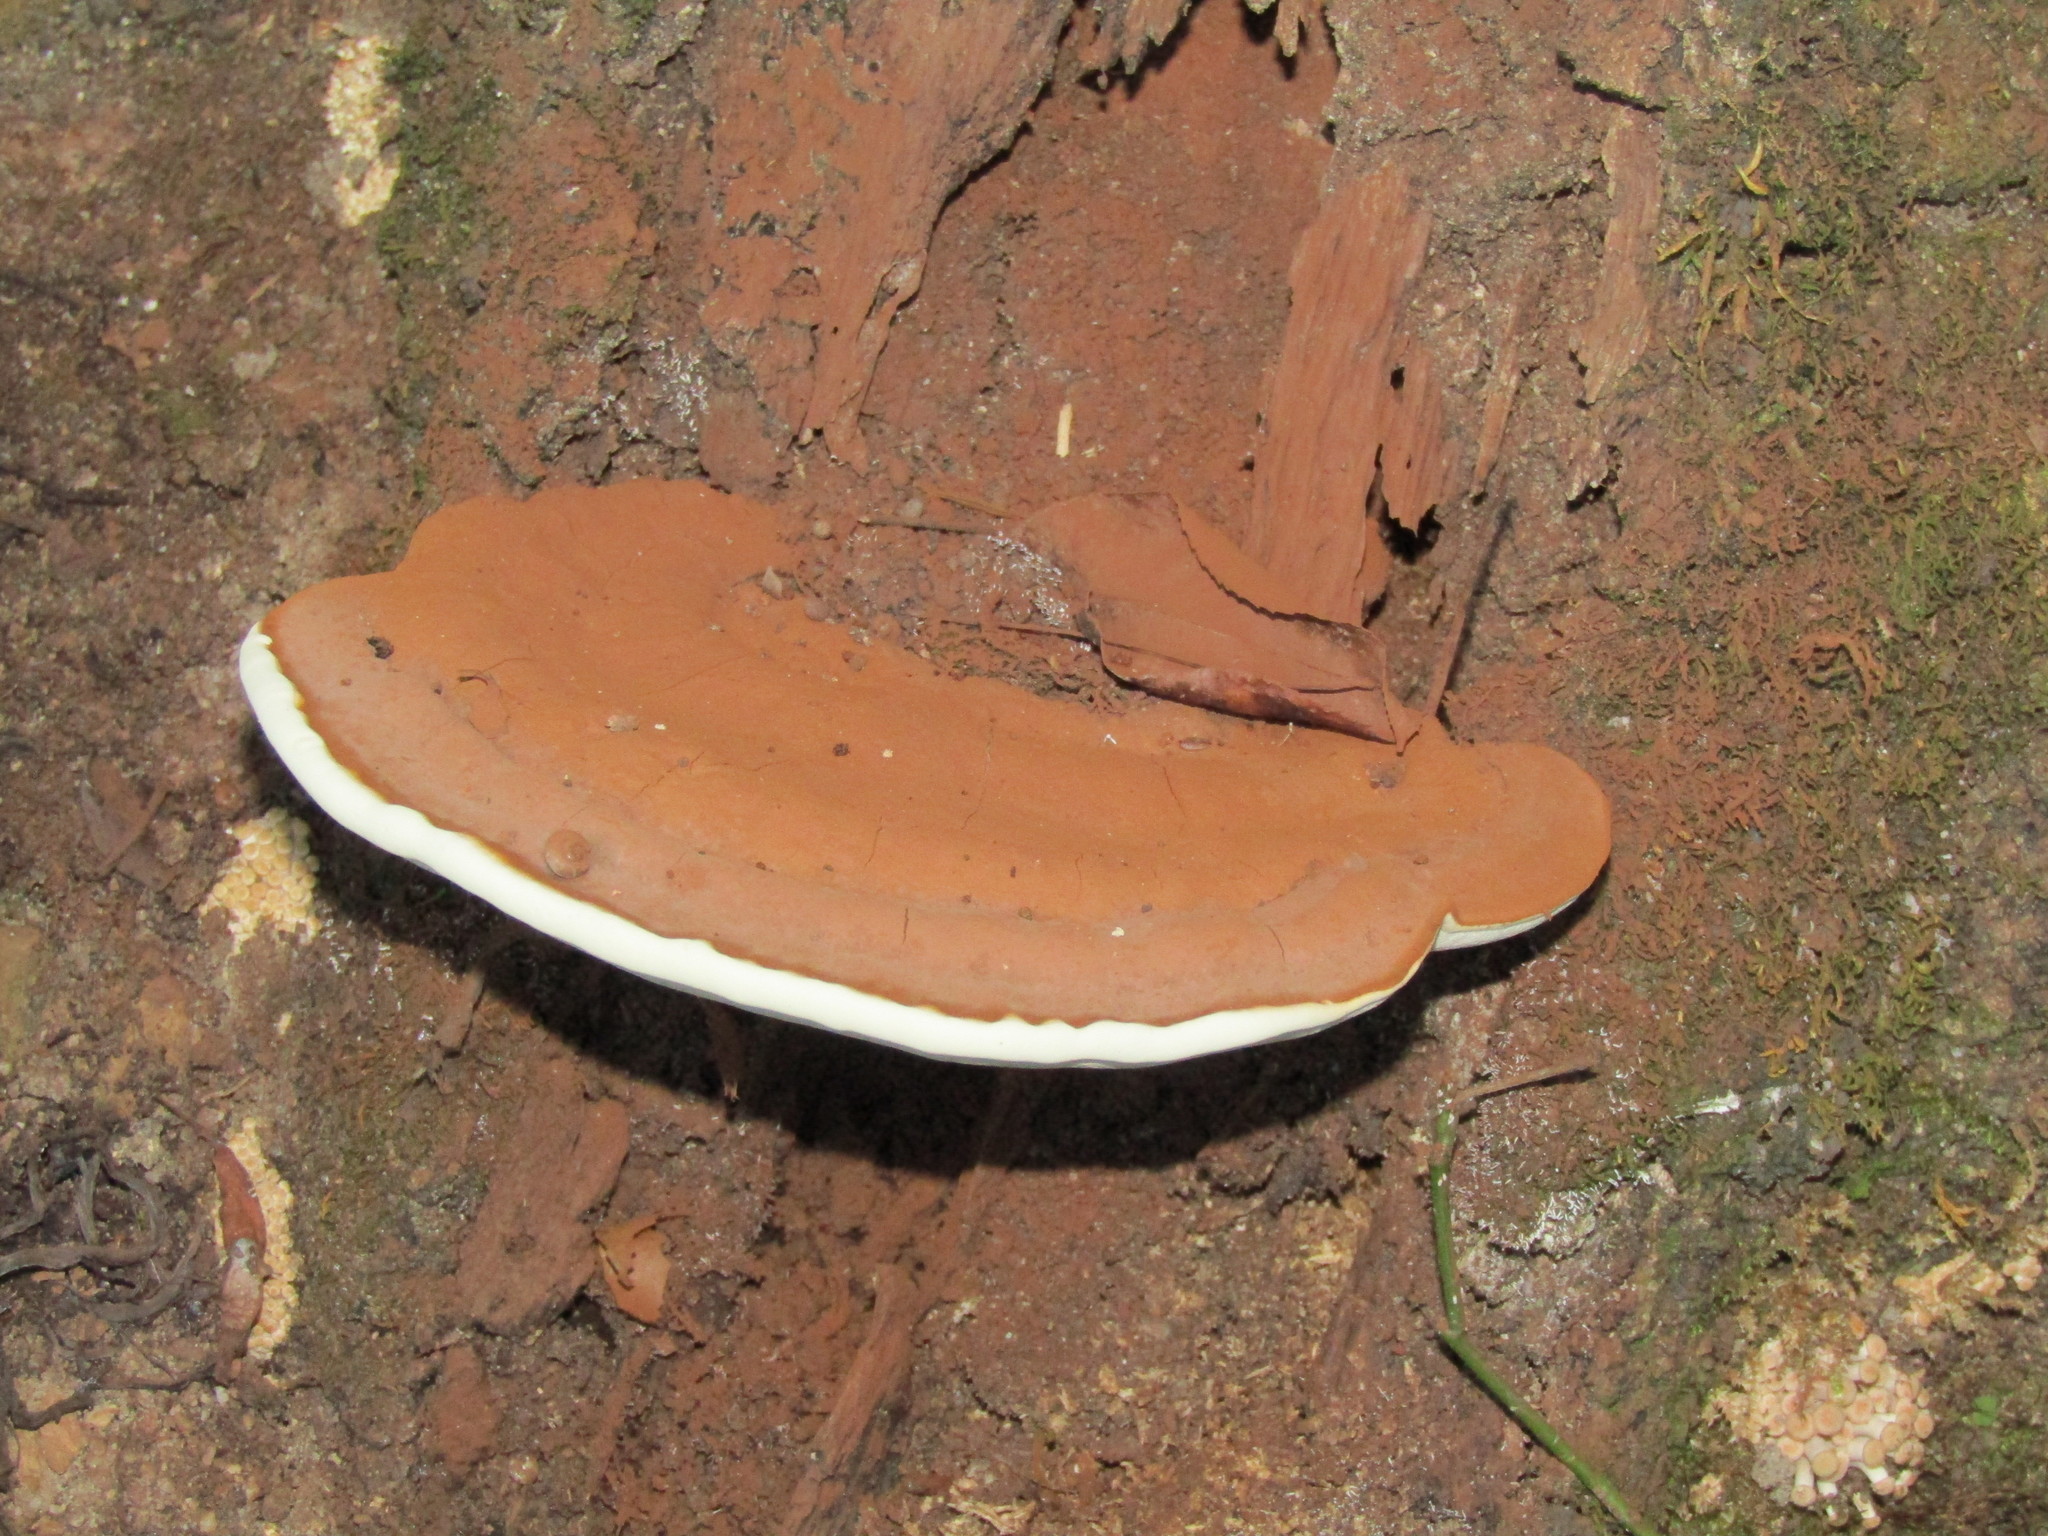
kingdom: Fungi
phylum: Basidiomycota
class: Agaricomycetes
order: Polyporales
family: Polyporaceae
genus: Ganoderma
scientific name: Ganoderma applanatum
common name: Artist's bracket
